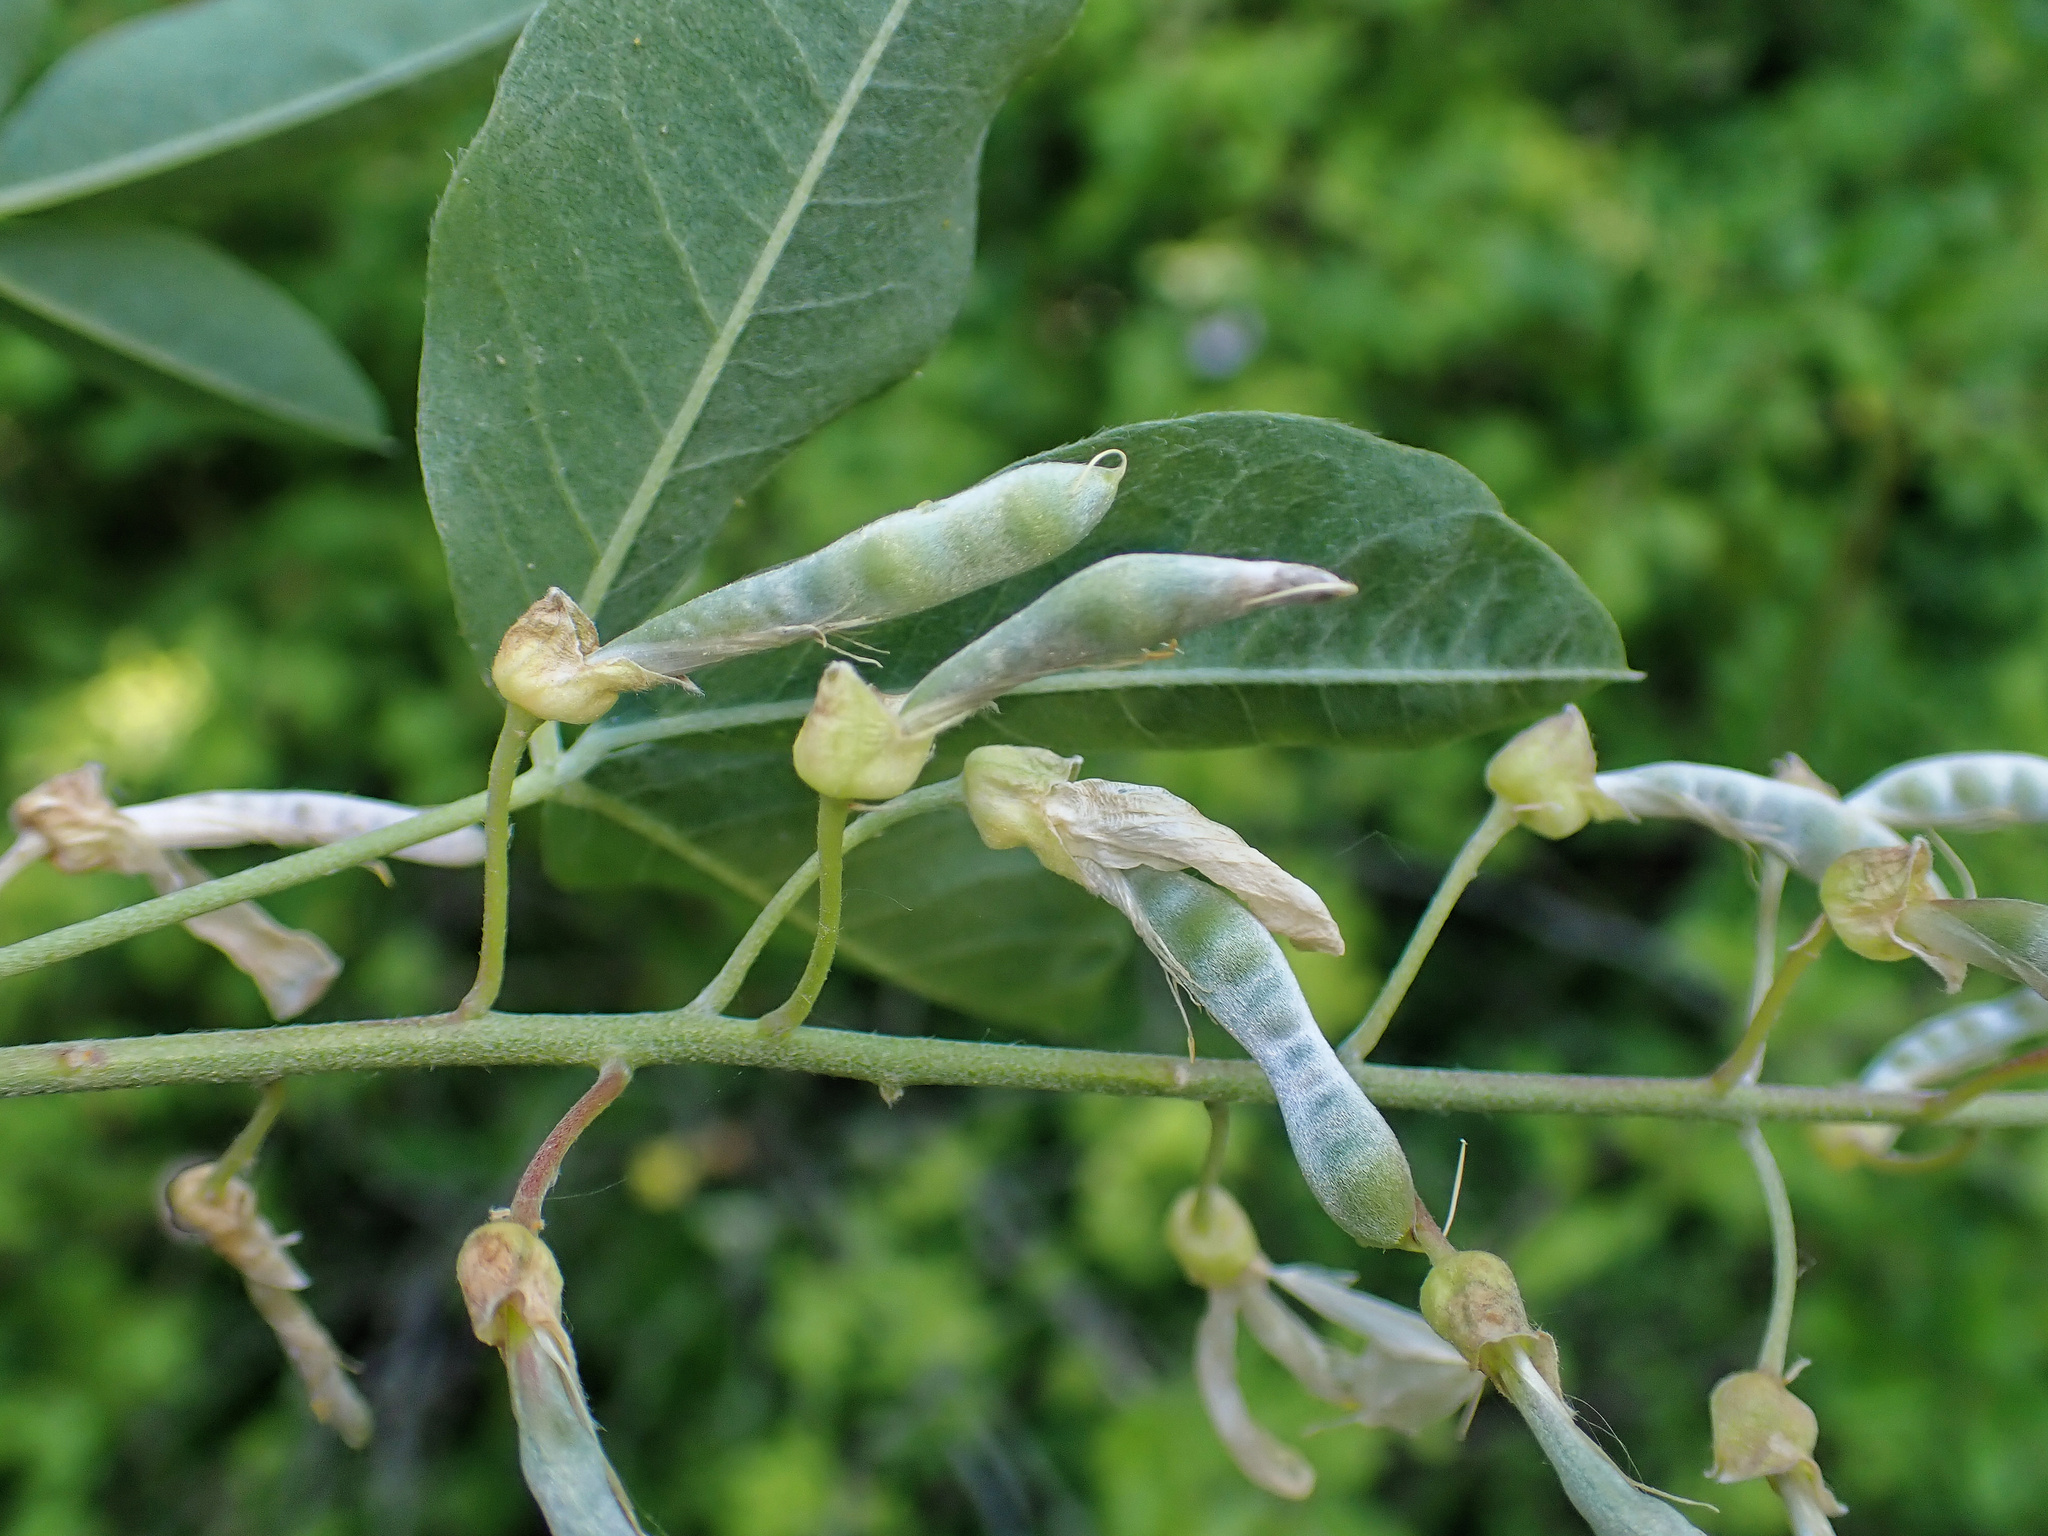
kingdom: Plantae
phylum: Tracheophyta
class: Magnoliopsida
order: Fabales
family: Fabaceae
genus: Laburnum
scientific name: Laburnum anagyroides
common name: Laburnum
